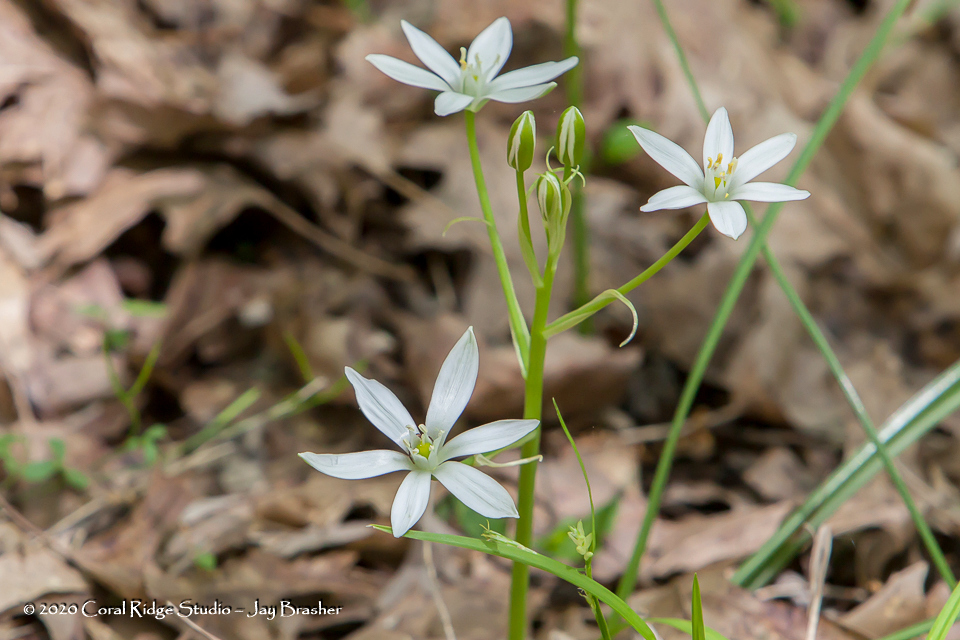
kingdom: Plantae
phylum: Tracheophyta
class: Liliopsida
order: Asparagales
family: Asparagaceae
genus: Ornithogalum
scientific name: Ornithogalum umbellatum
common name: Garden star-of-bethlehem
